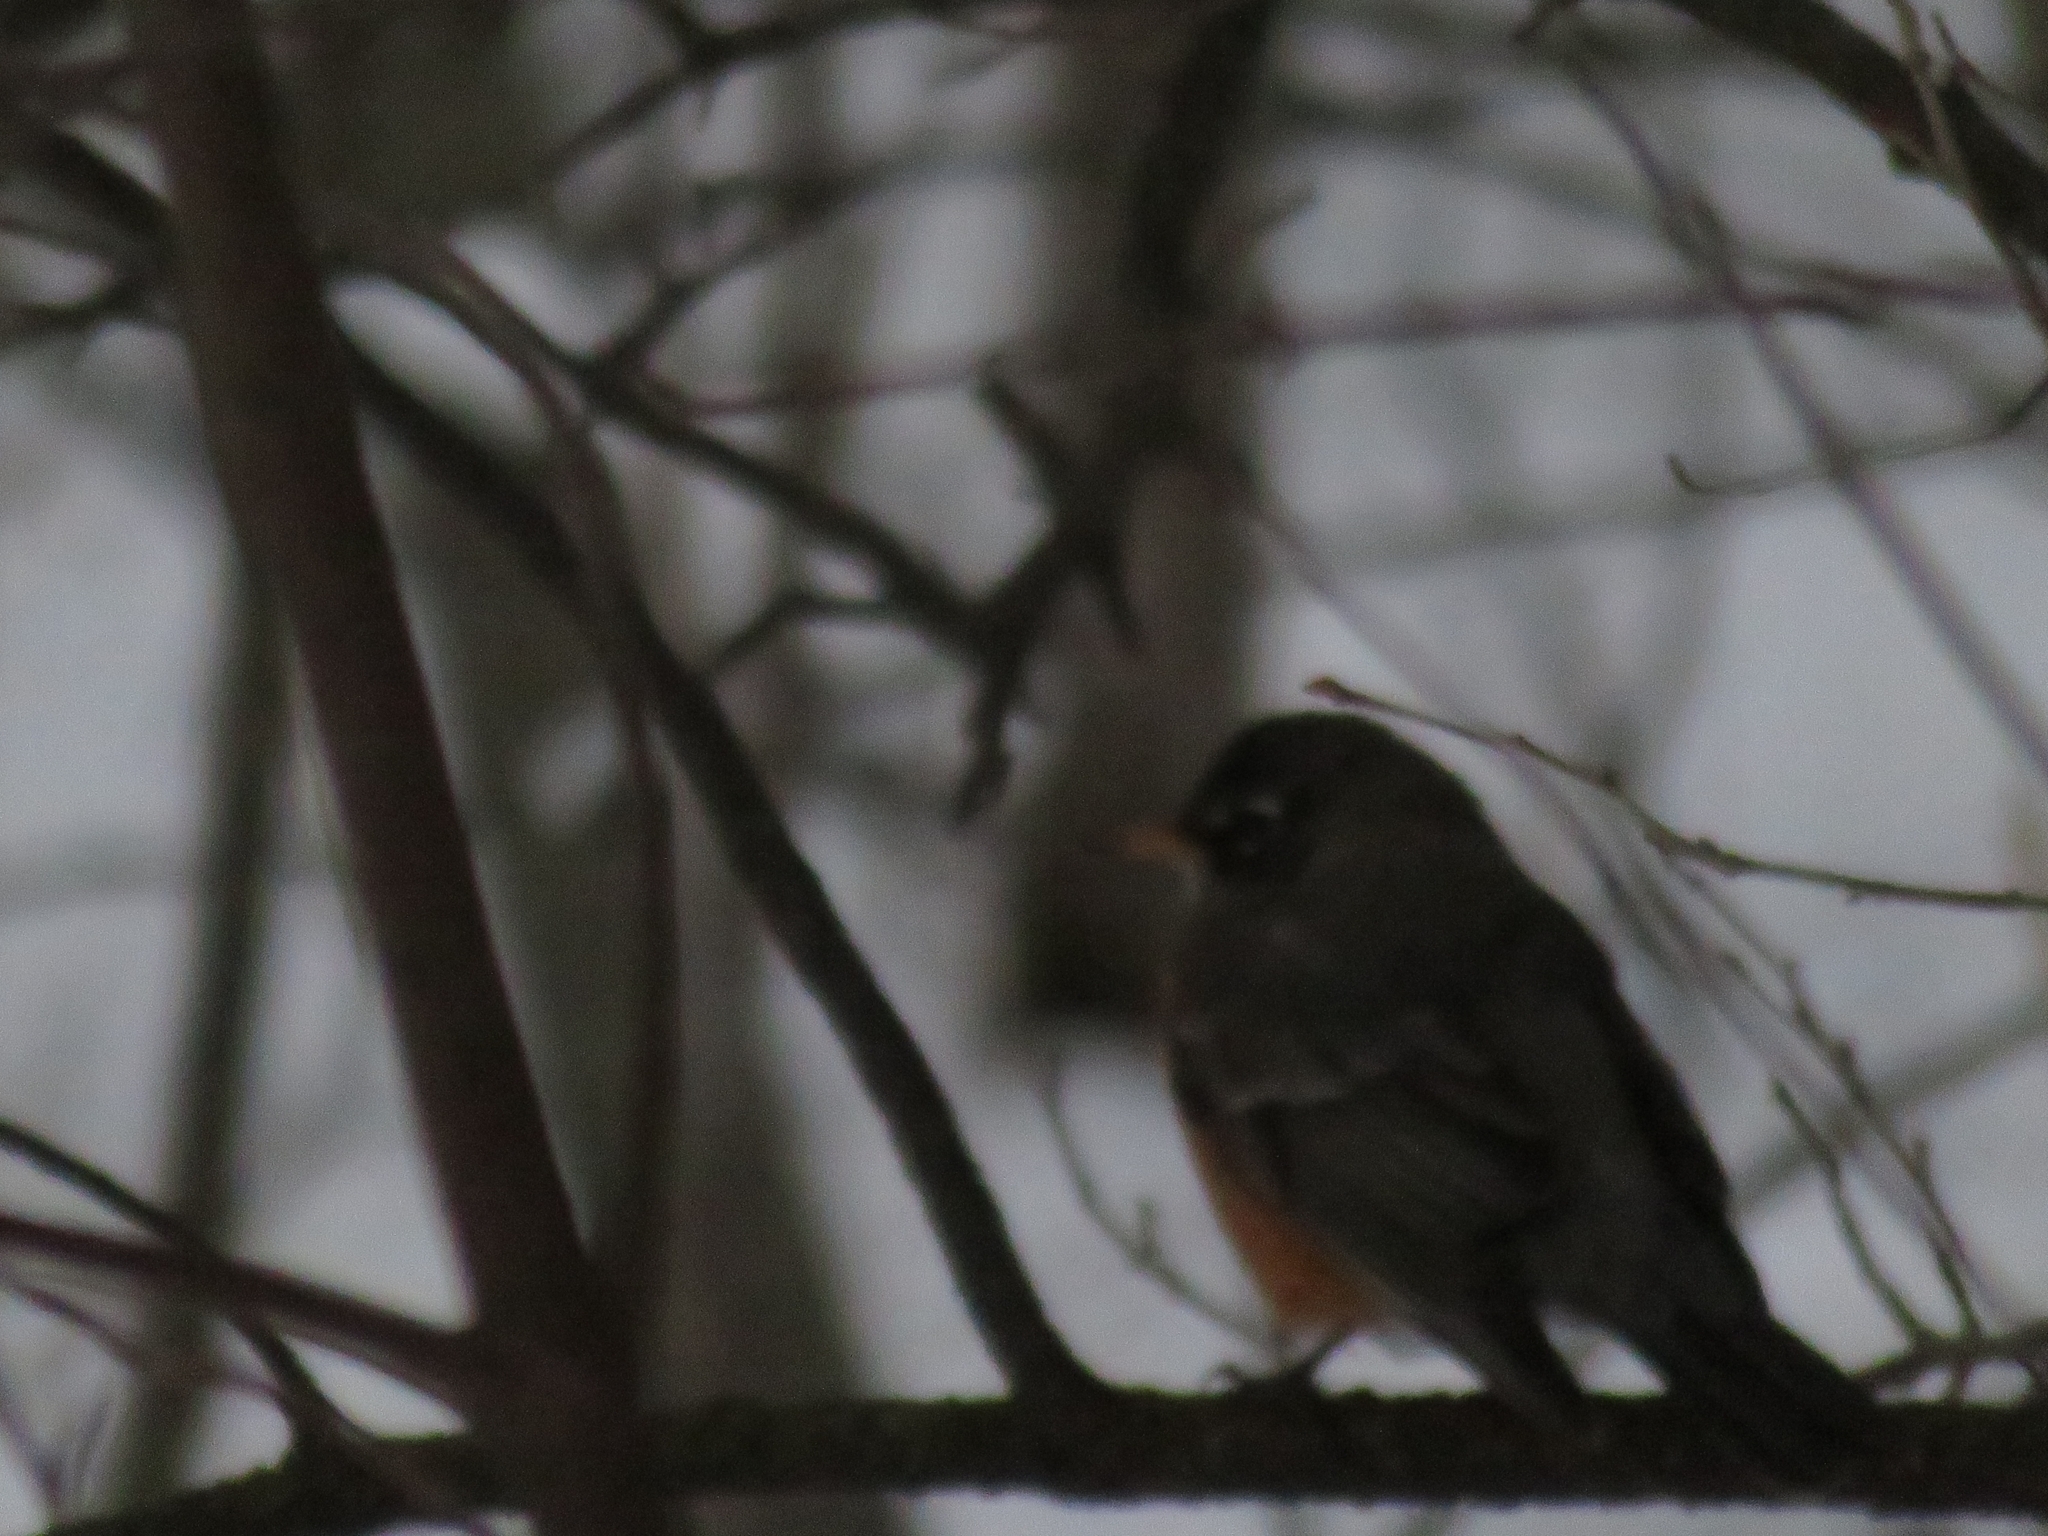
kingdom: Animalia
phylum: Chordata
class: Aves
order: Passeriformes
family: Turdidae
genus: Turdus
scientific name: Turdus migratorius
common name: American robin
